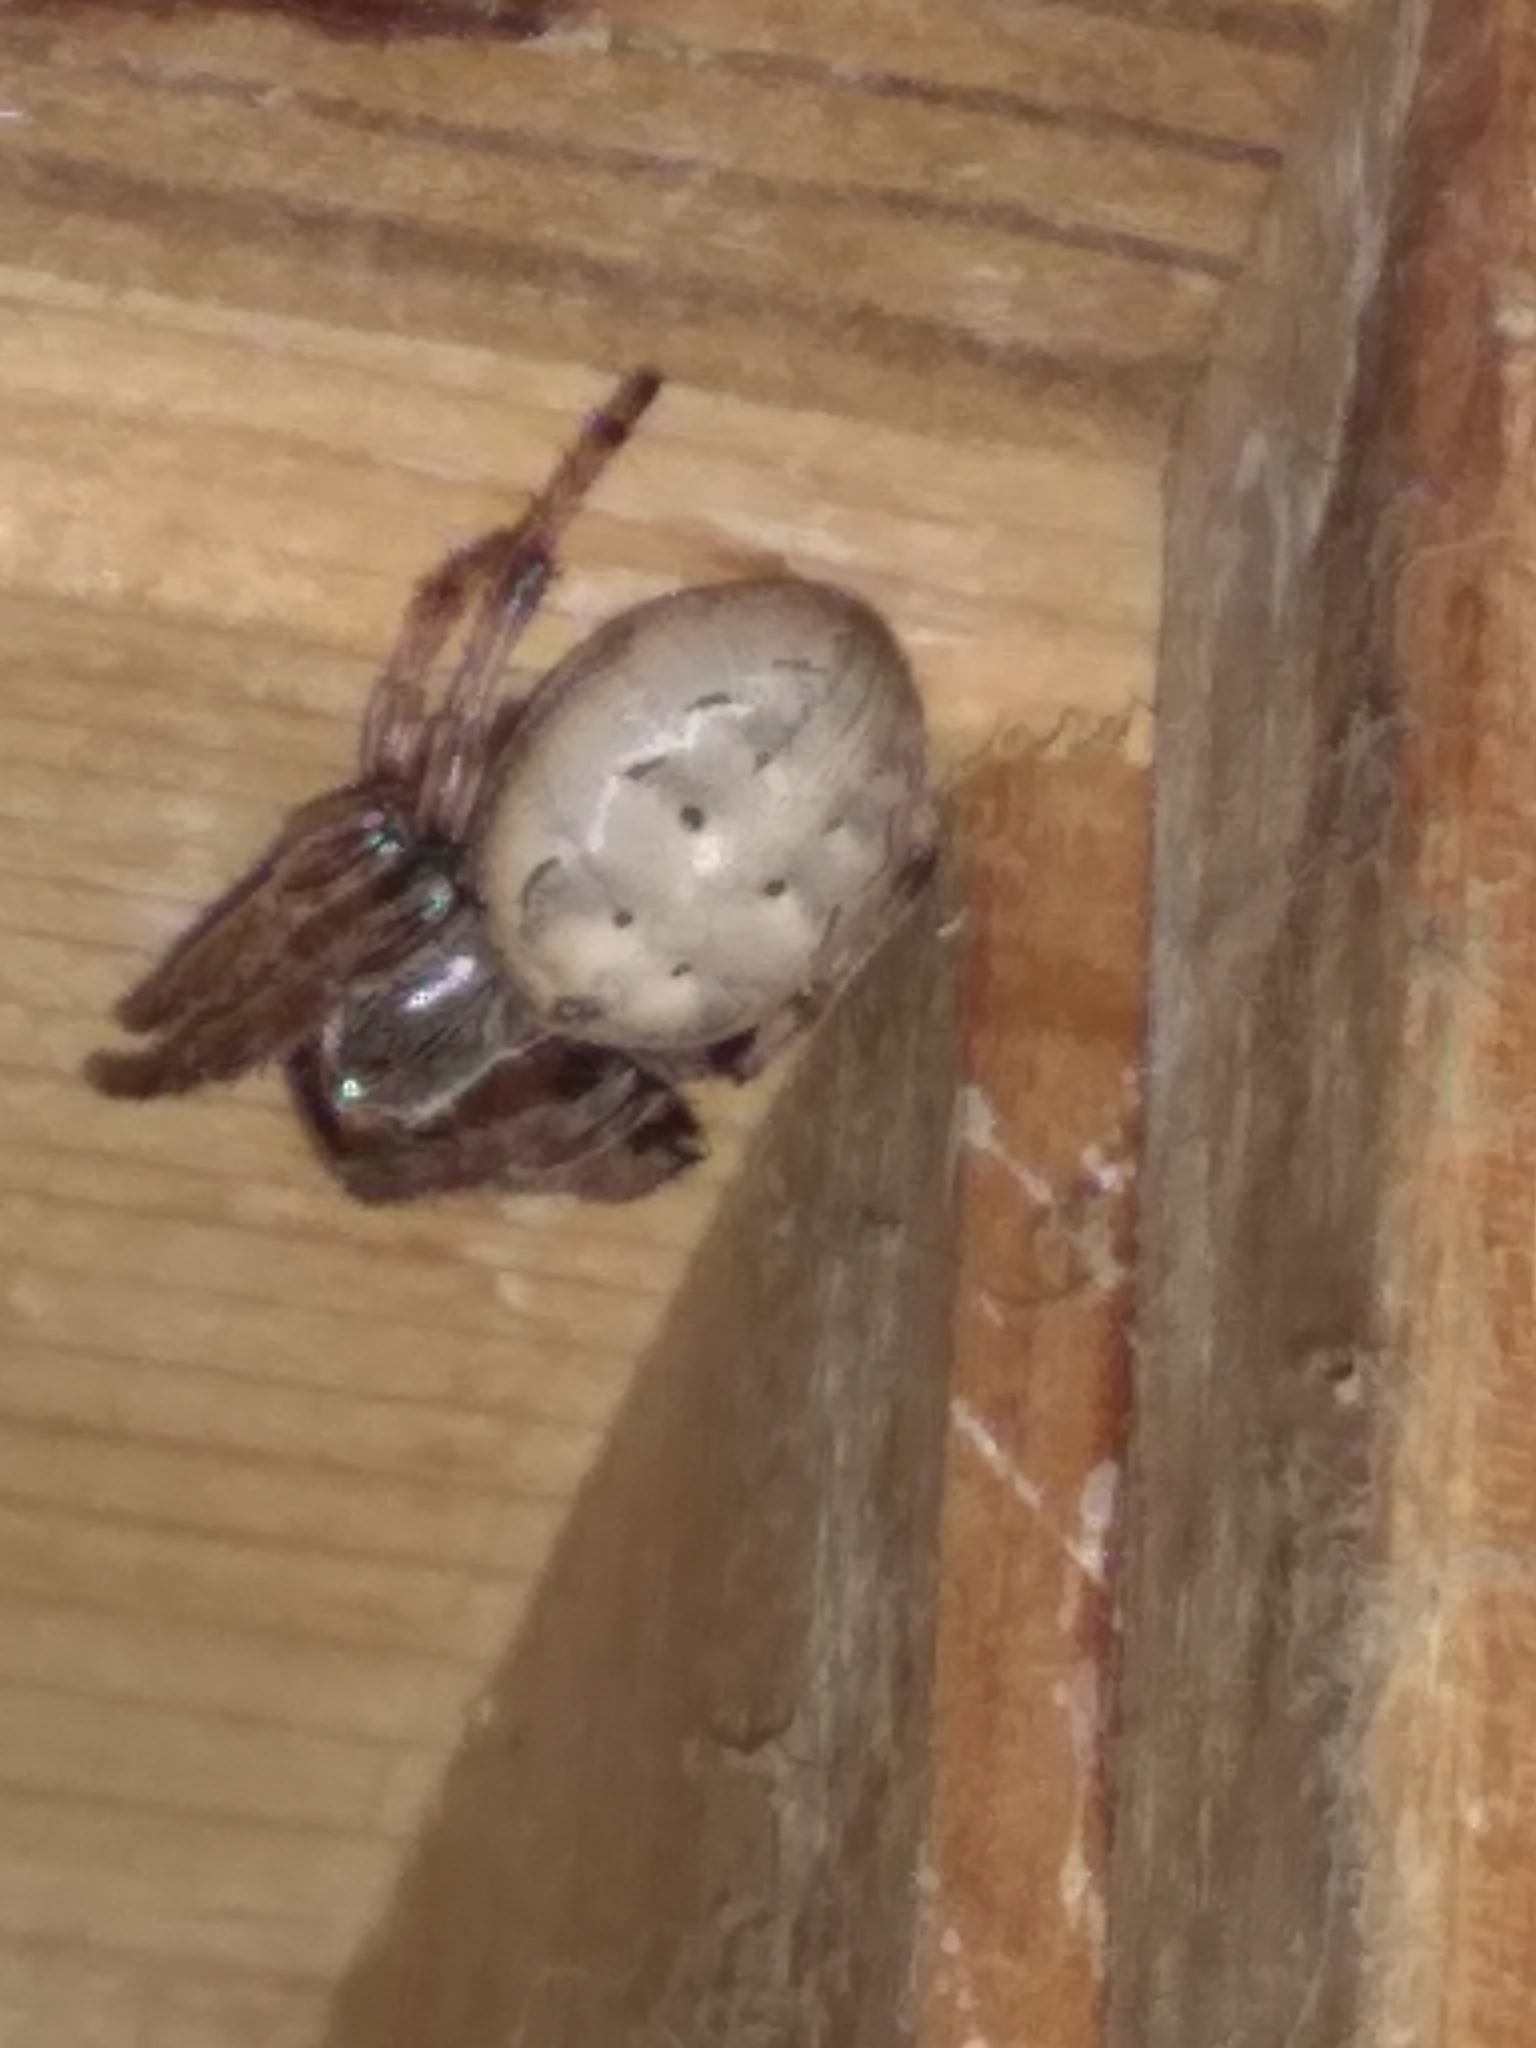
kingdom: Animalia
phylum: Arthropoda
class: Arachnida
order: Araneae
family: Araneidae
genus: Larinioides
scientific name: Larinioides cornutus
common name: Furrow orbweaver
